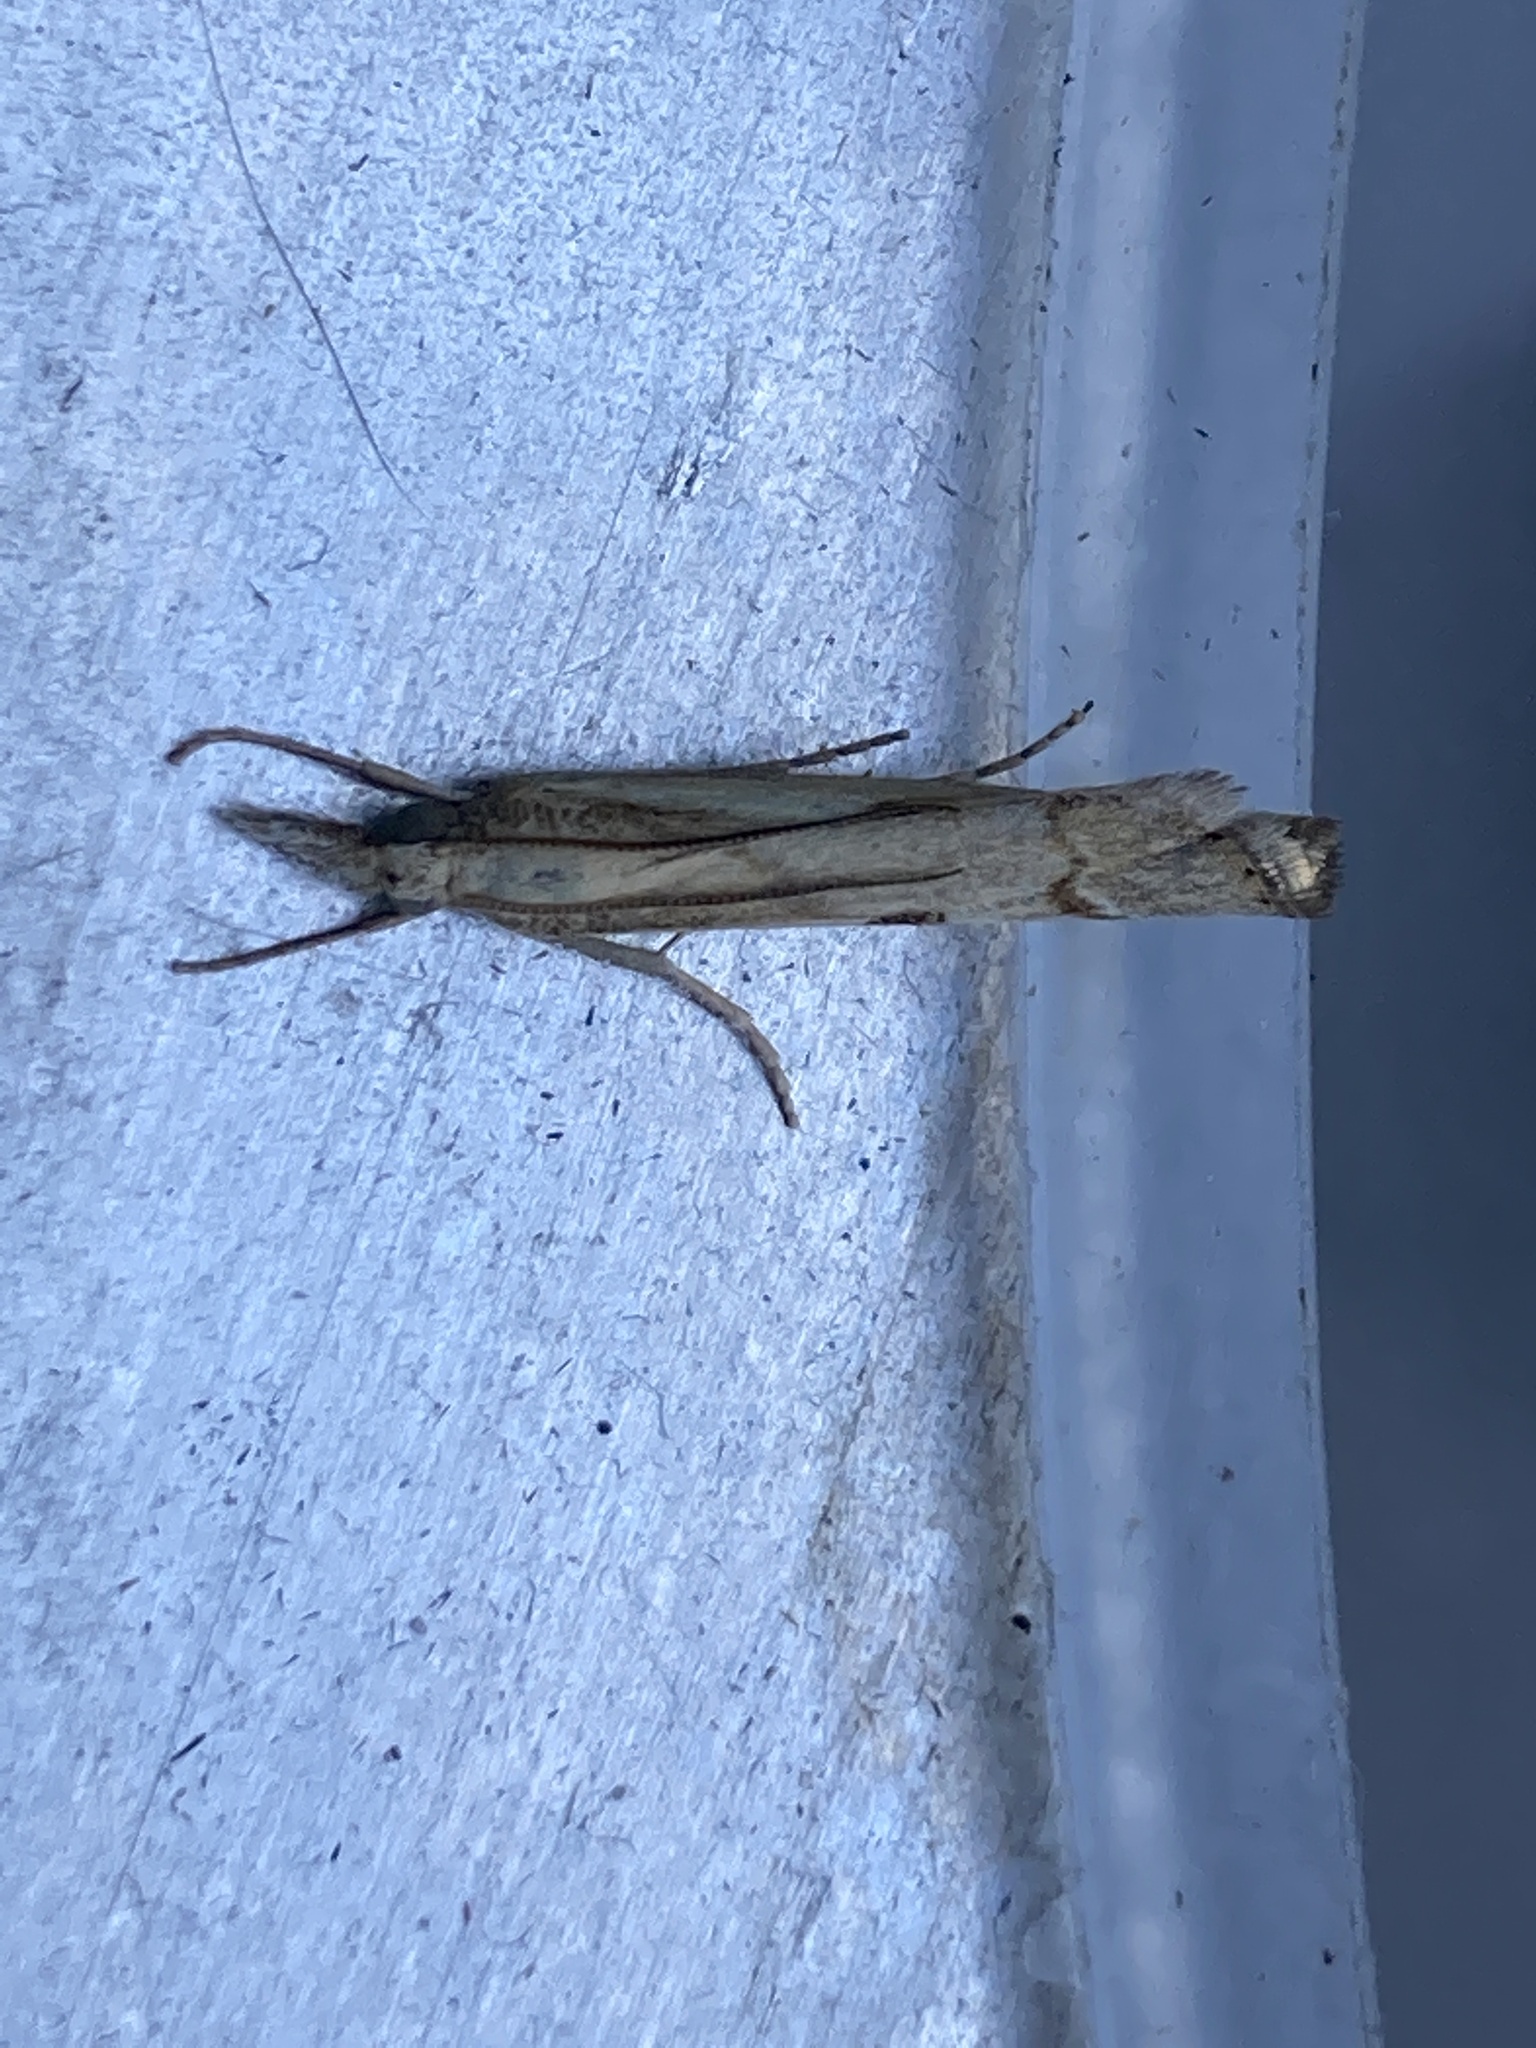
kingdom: Animalia
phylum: Arthropoda
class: Insecta
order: Lepidoptera
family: Crambidae
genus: Agriphila
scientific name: Agriphila geniculea
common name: Elbow-stripe grass-veneer
